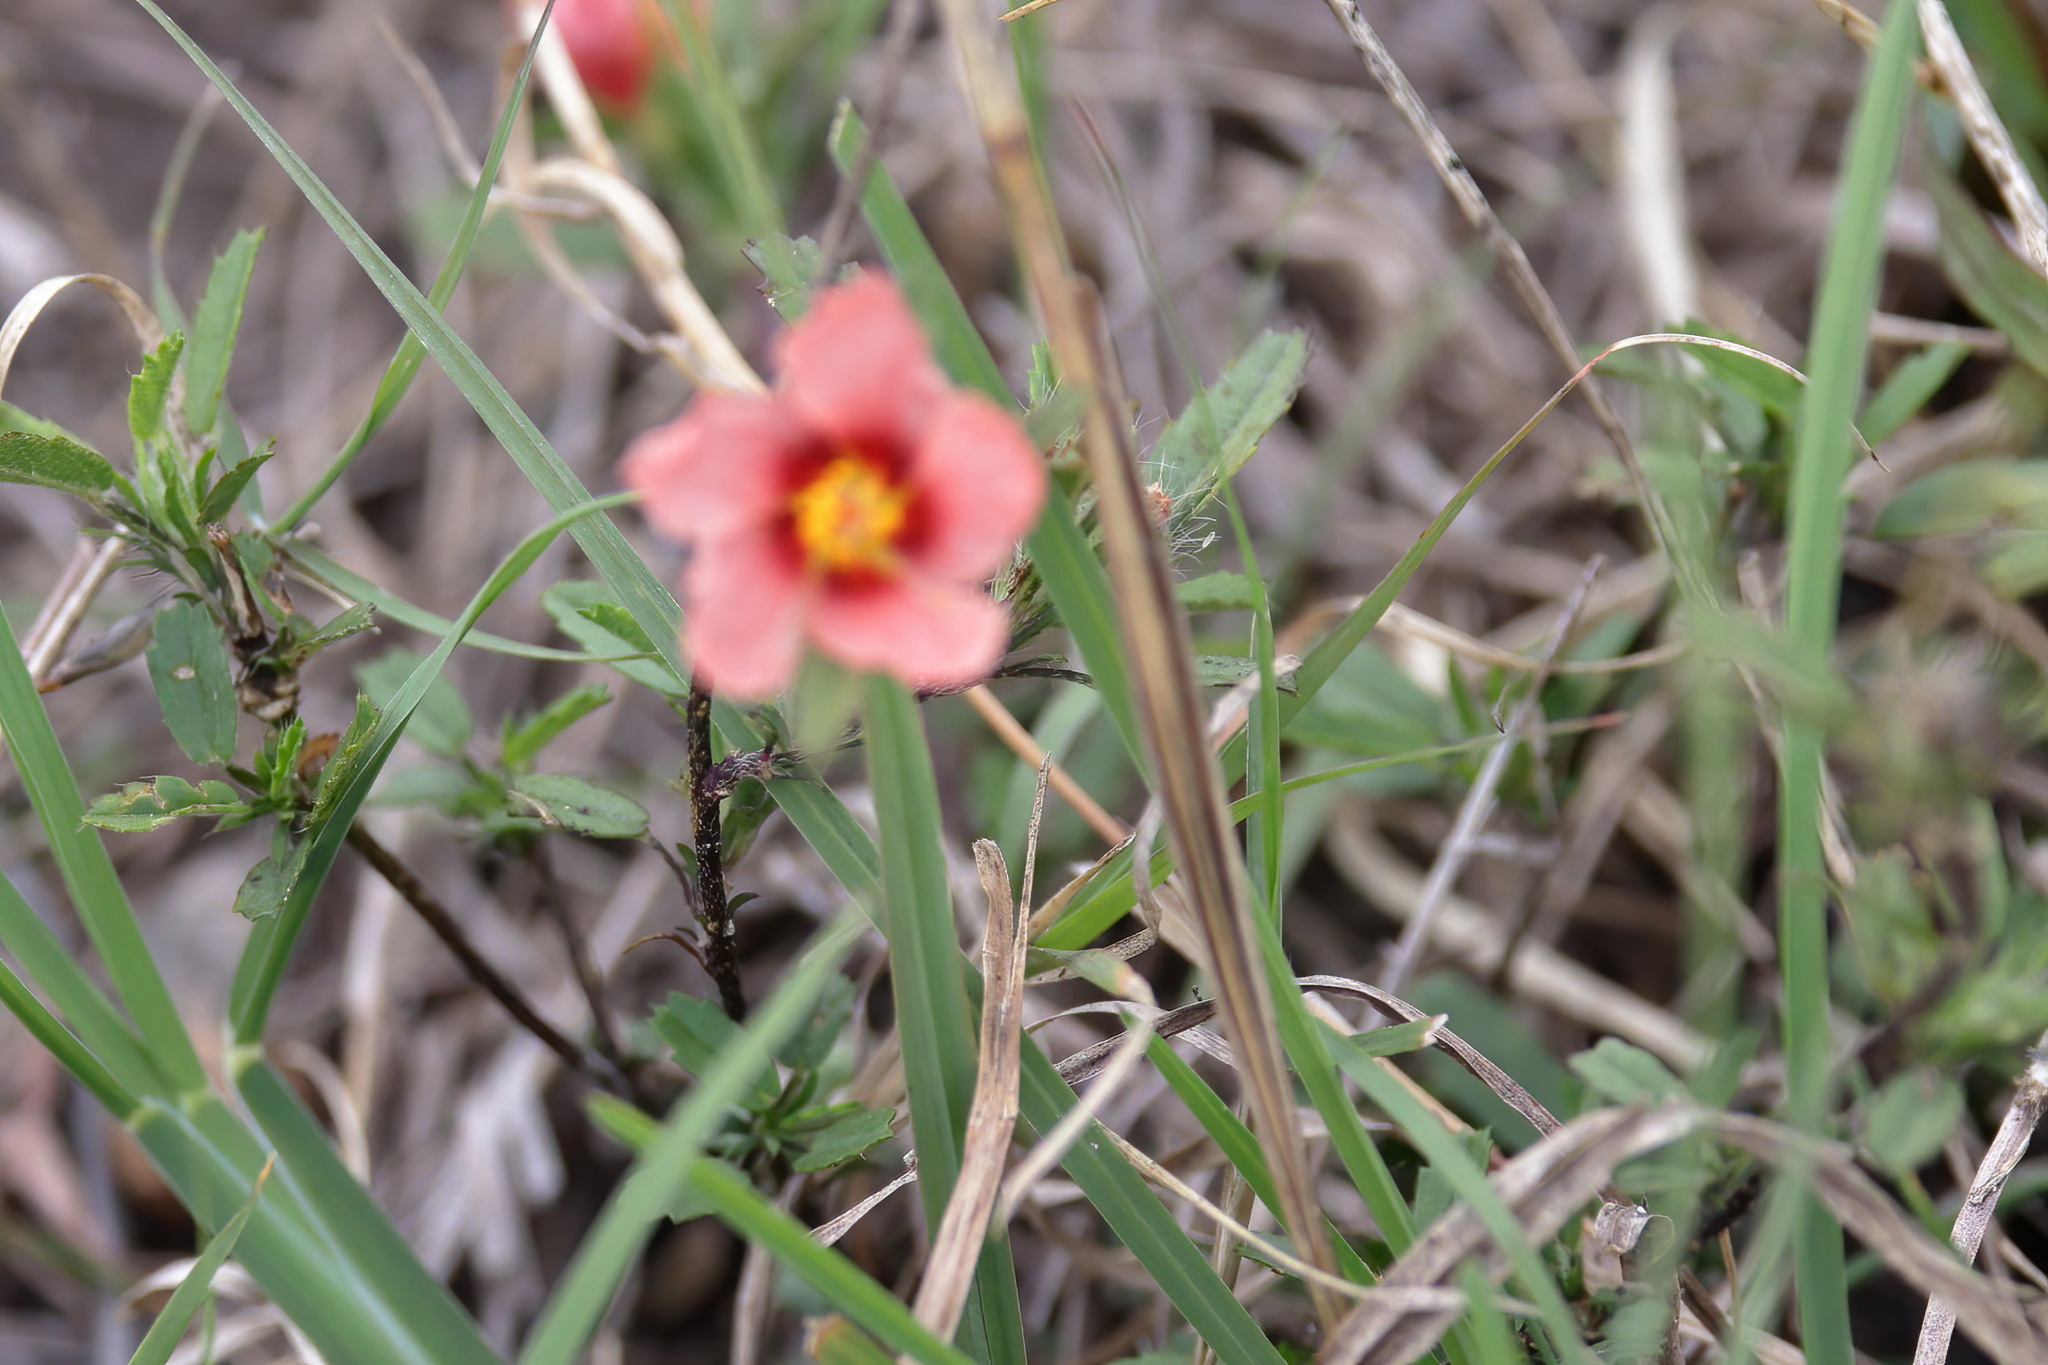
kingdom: Plantae
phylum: Tracheophyta
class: Magnoliopsida
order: Malvales
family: Malvaceae
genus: Sida
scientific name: Sida ciliaris
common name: Bracted fanpetals
